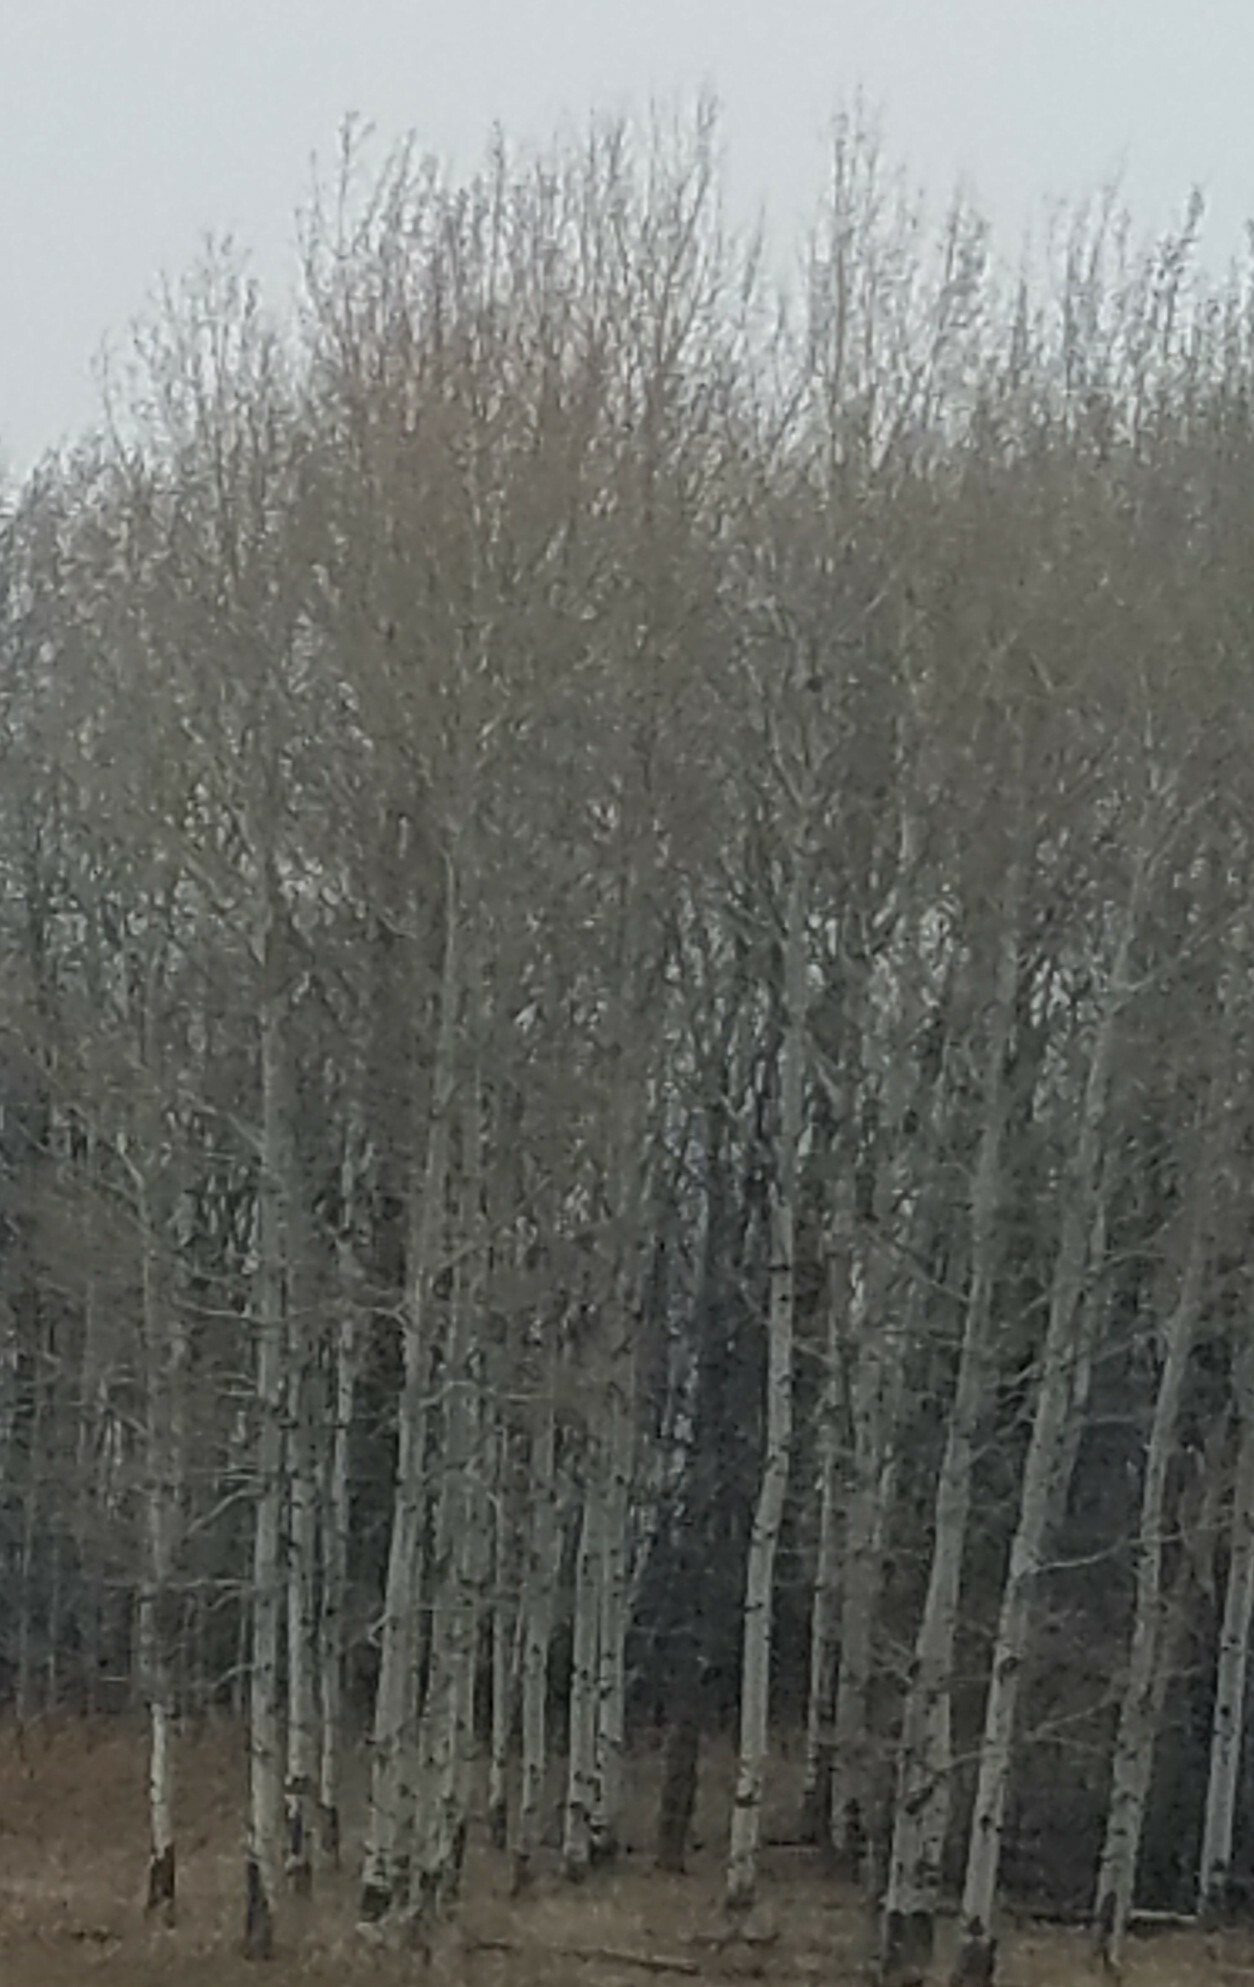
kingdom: Plantae
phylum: Tracheophyta
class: Magnoliopsida
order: Malpighiales
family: Salicaceae
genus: Populus
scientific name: Populus tremuloides
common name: Quaking aspen
